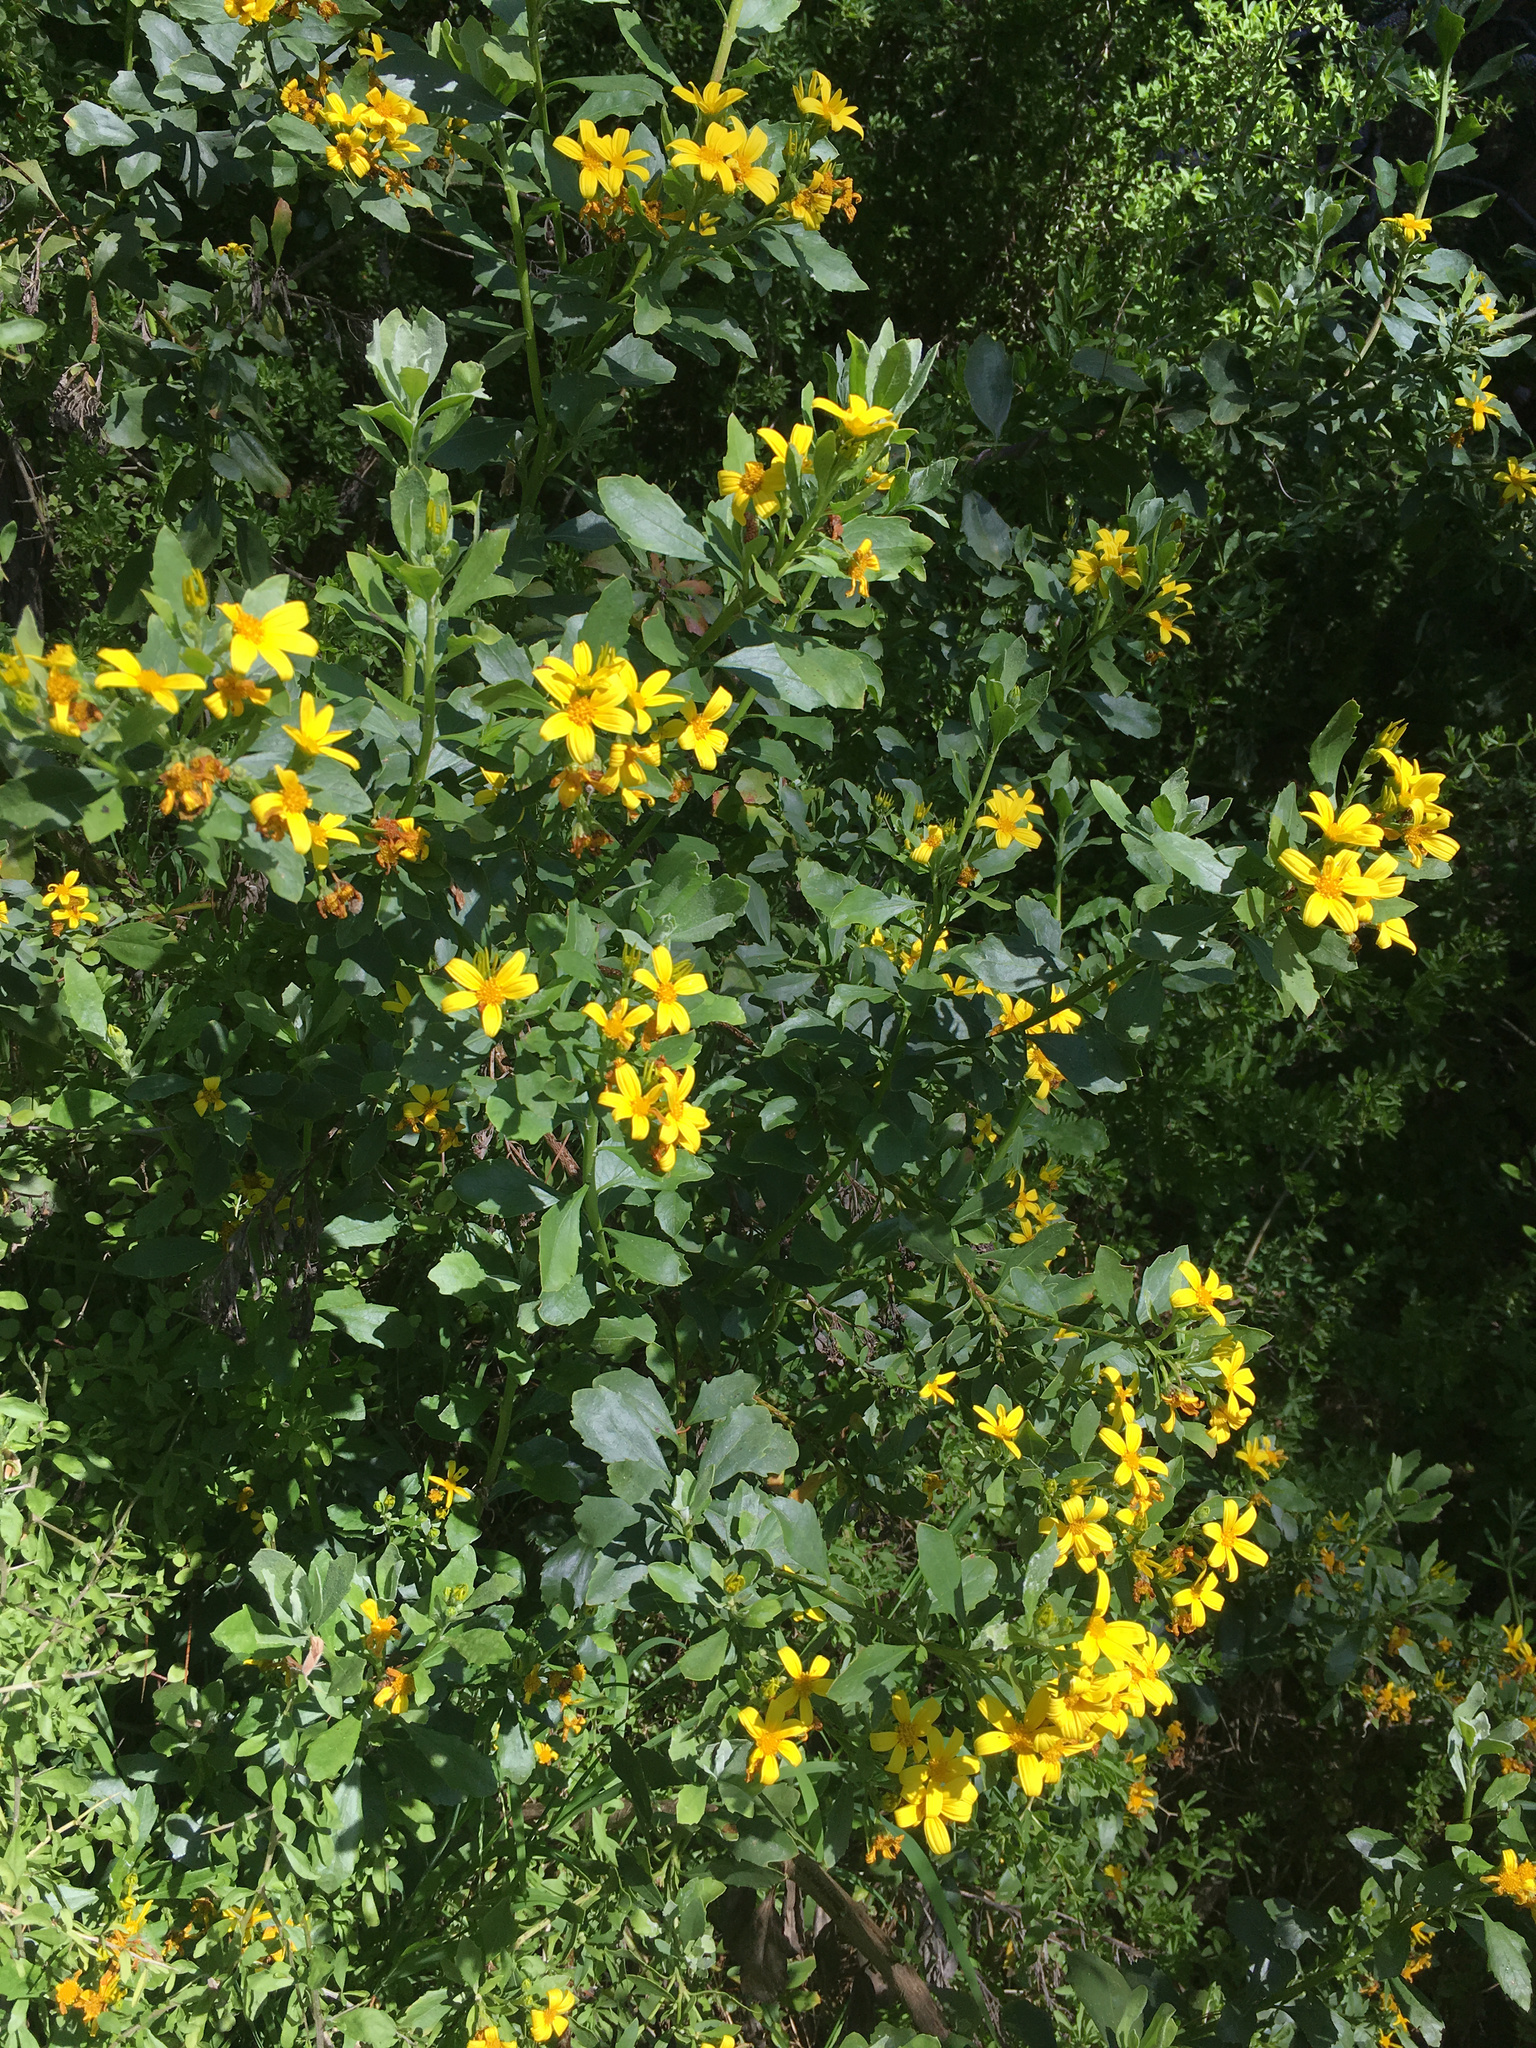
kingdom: Plantae
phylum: Tracheophyta
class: Magnoliopsida
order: Asterales
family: Asteraceae
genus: Osteospermum
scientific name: Osteospermum moniliferum
